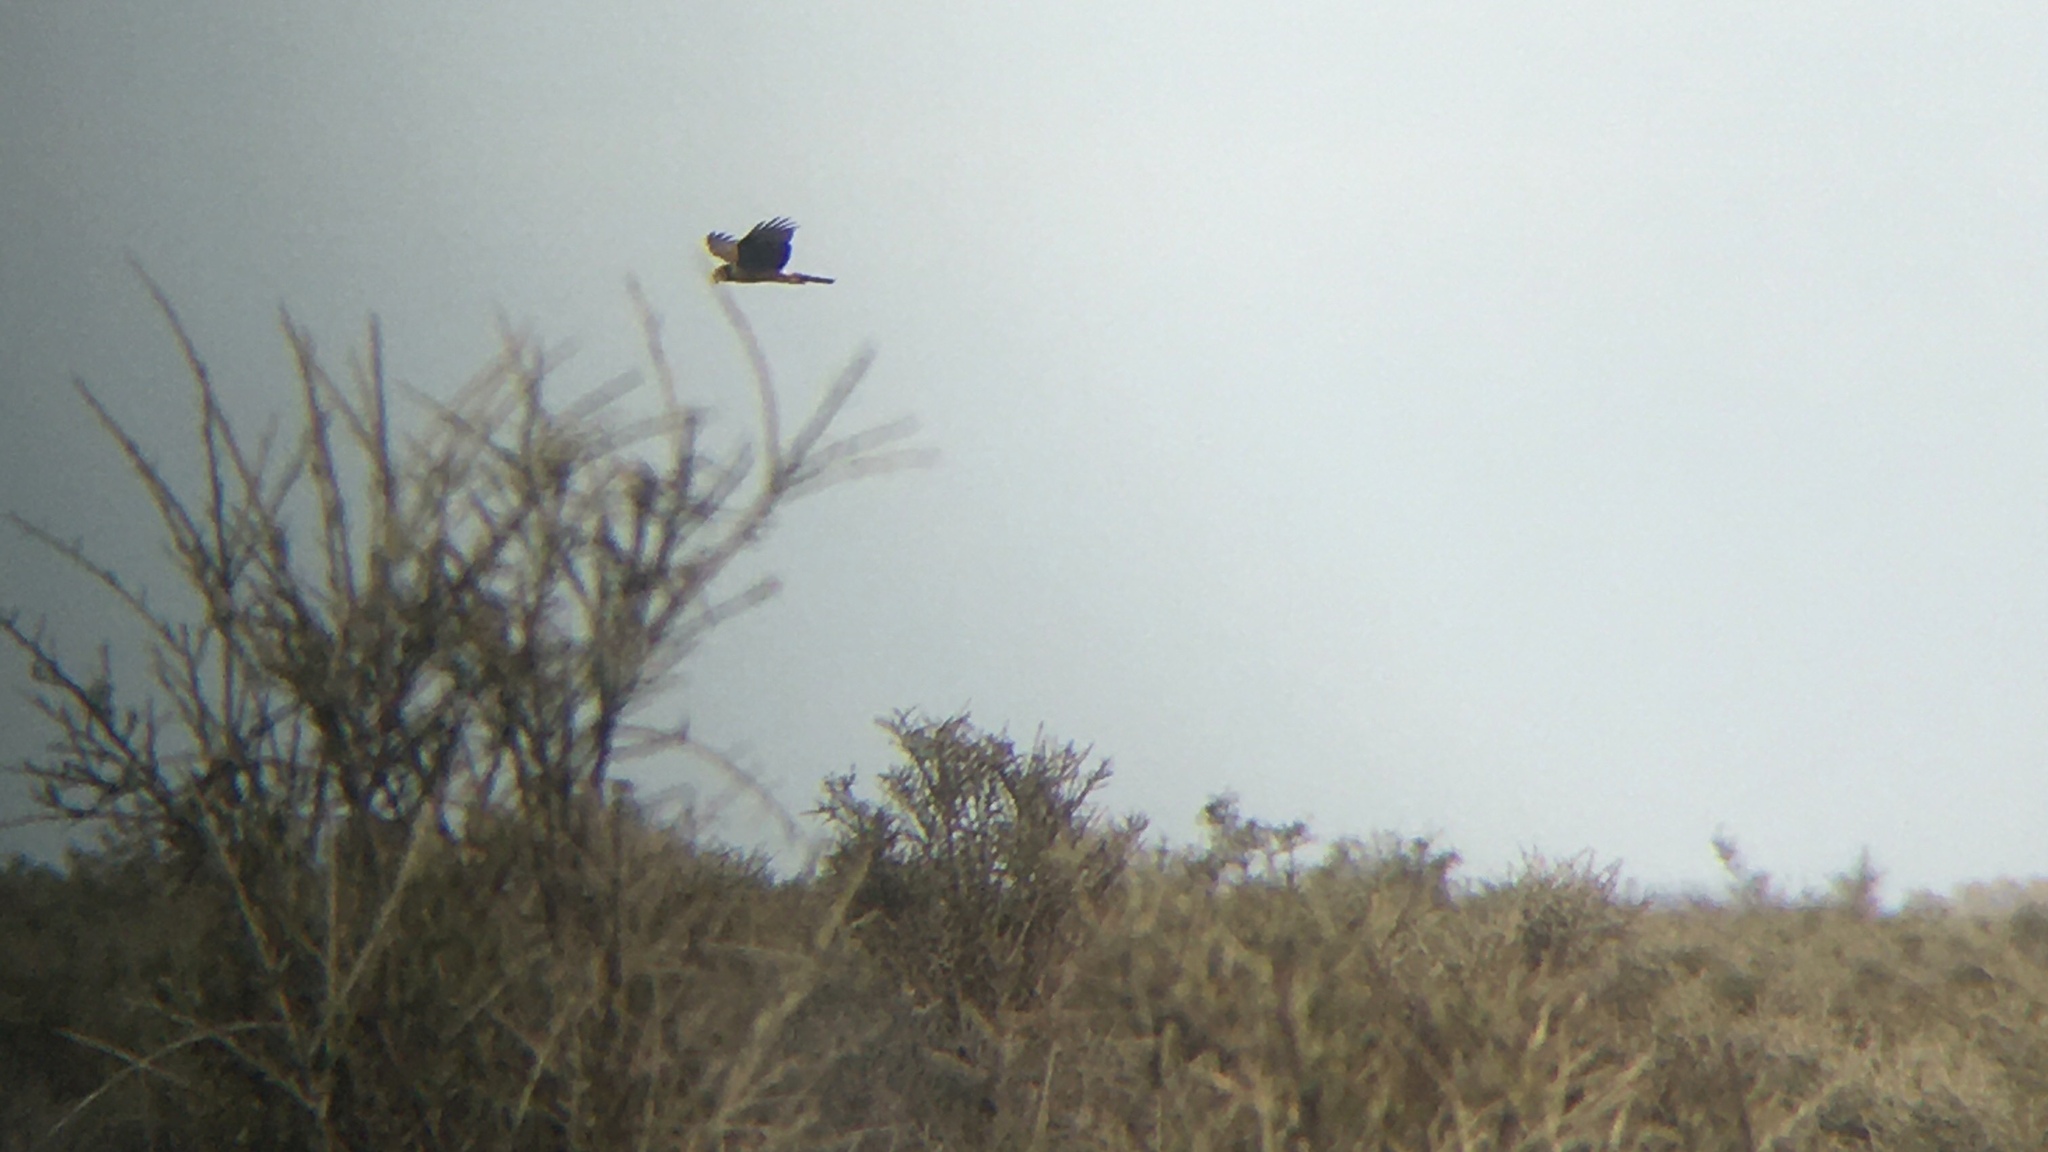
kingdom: Animalia
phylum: Chordata
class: Aves
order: Accipitriformes
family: Accipitridae
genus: Circus
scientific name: Circus buffoni
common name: Long-winged harrier
